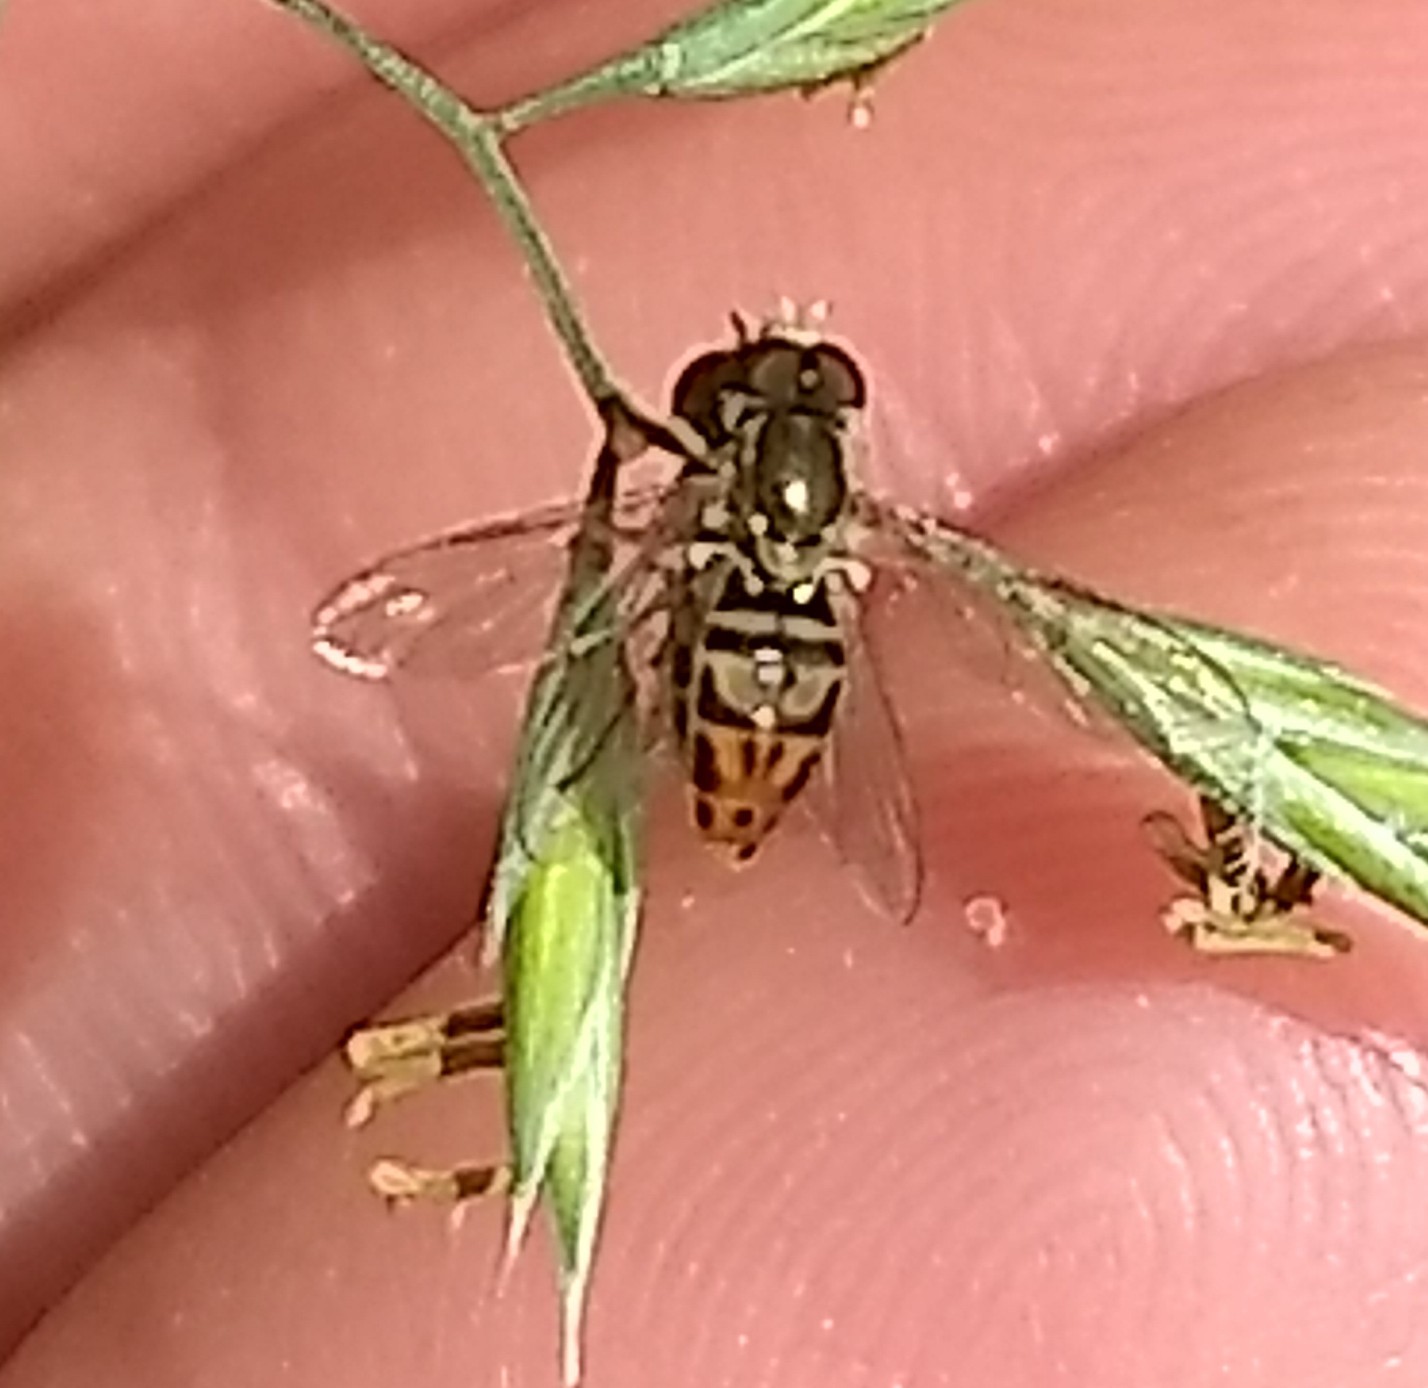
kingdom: Animalia
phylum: Arthropoda
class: Insecta
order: Diptera
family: Syrphidae
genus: Toxomerus
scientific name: Toxomerus marginatus
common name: Syrphid fly
